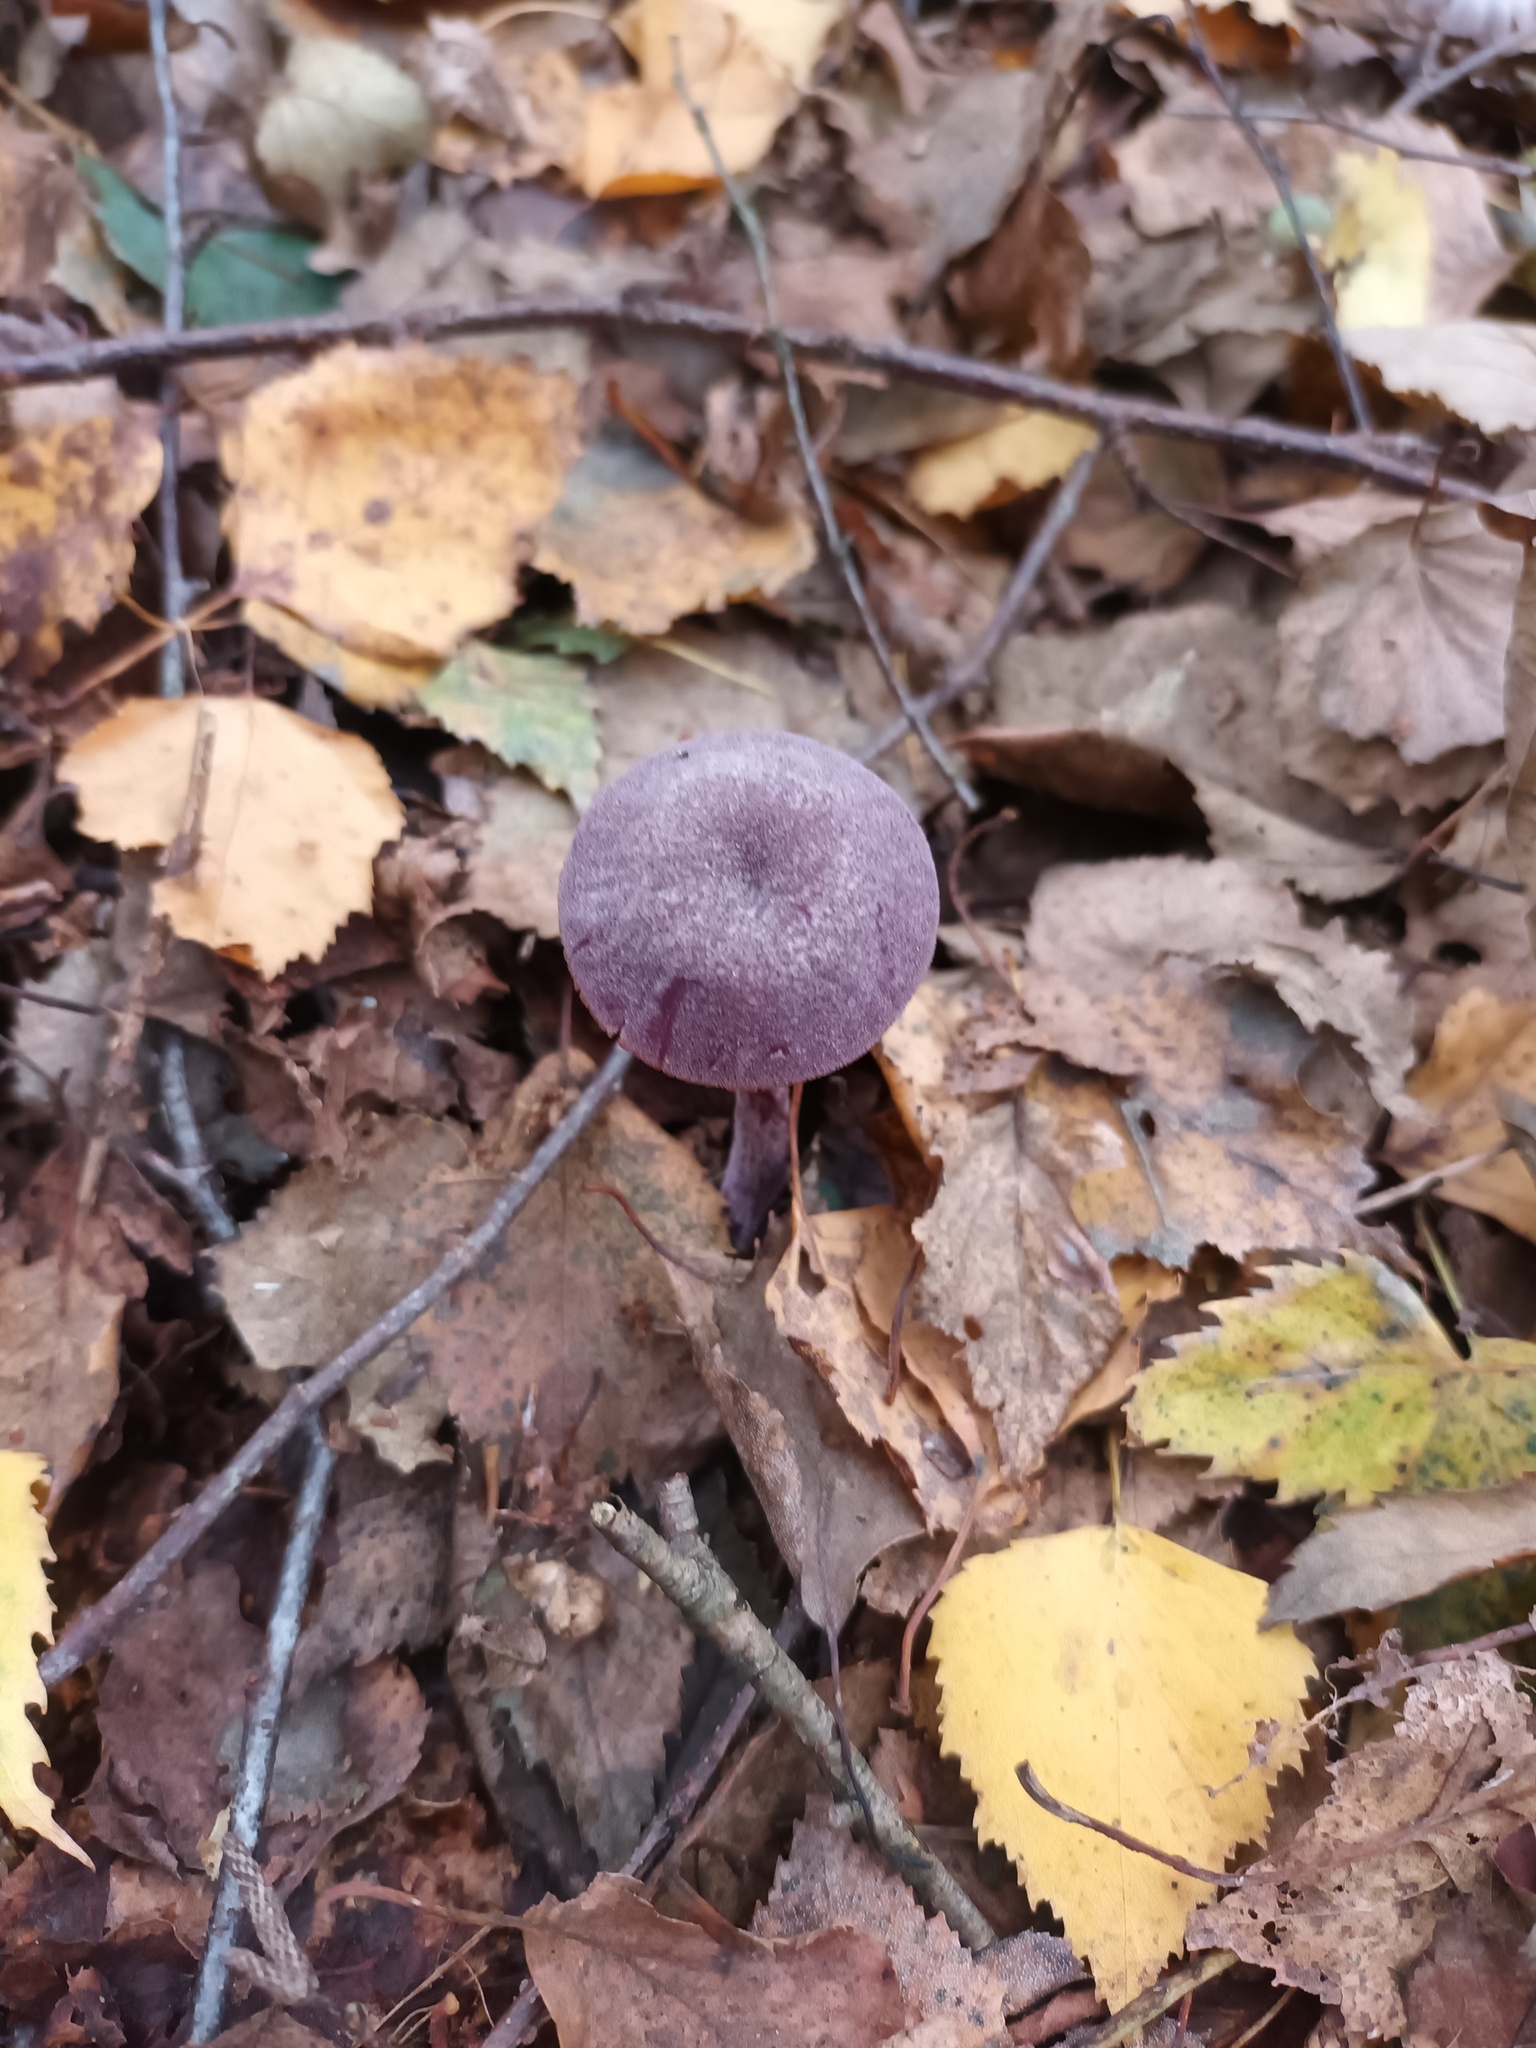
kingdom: Fungi
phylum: Basidiomycota
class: Agaricomycetes
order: Agaricales
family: Hydnangiaceae
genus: Laccaria
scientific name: Laccaria amethystina
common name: Amethyst deceiver
